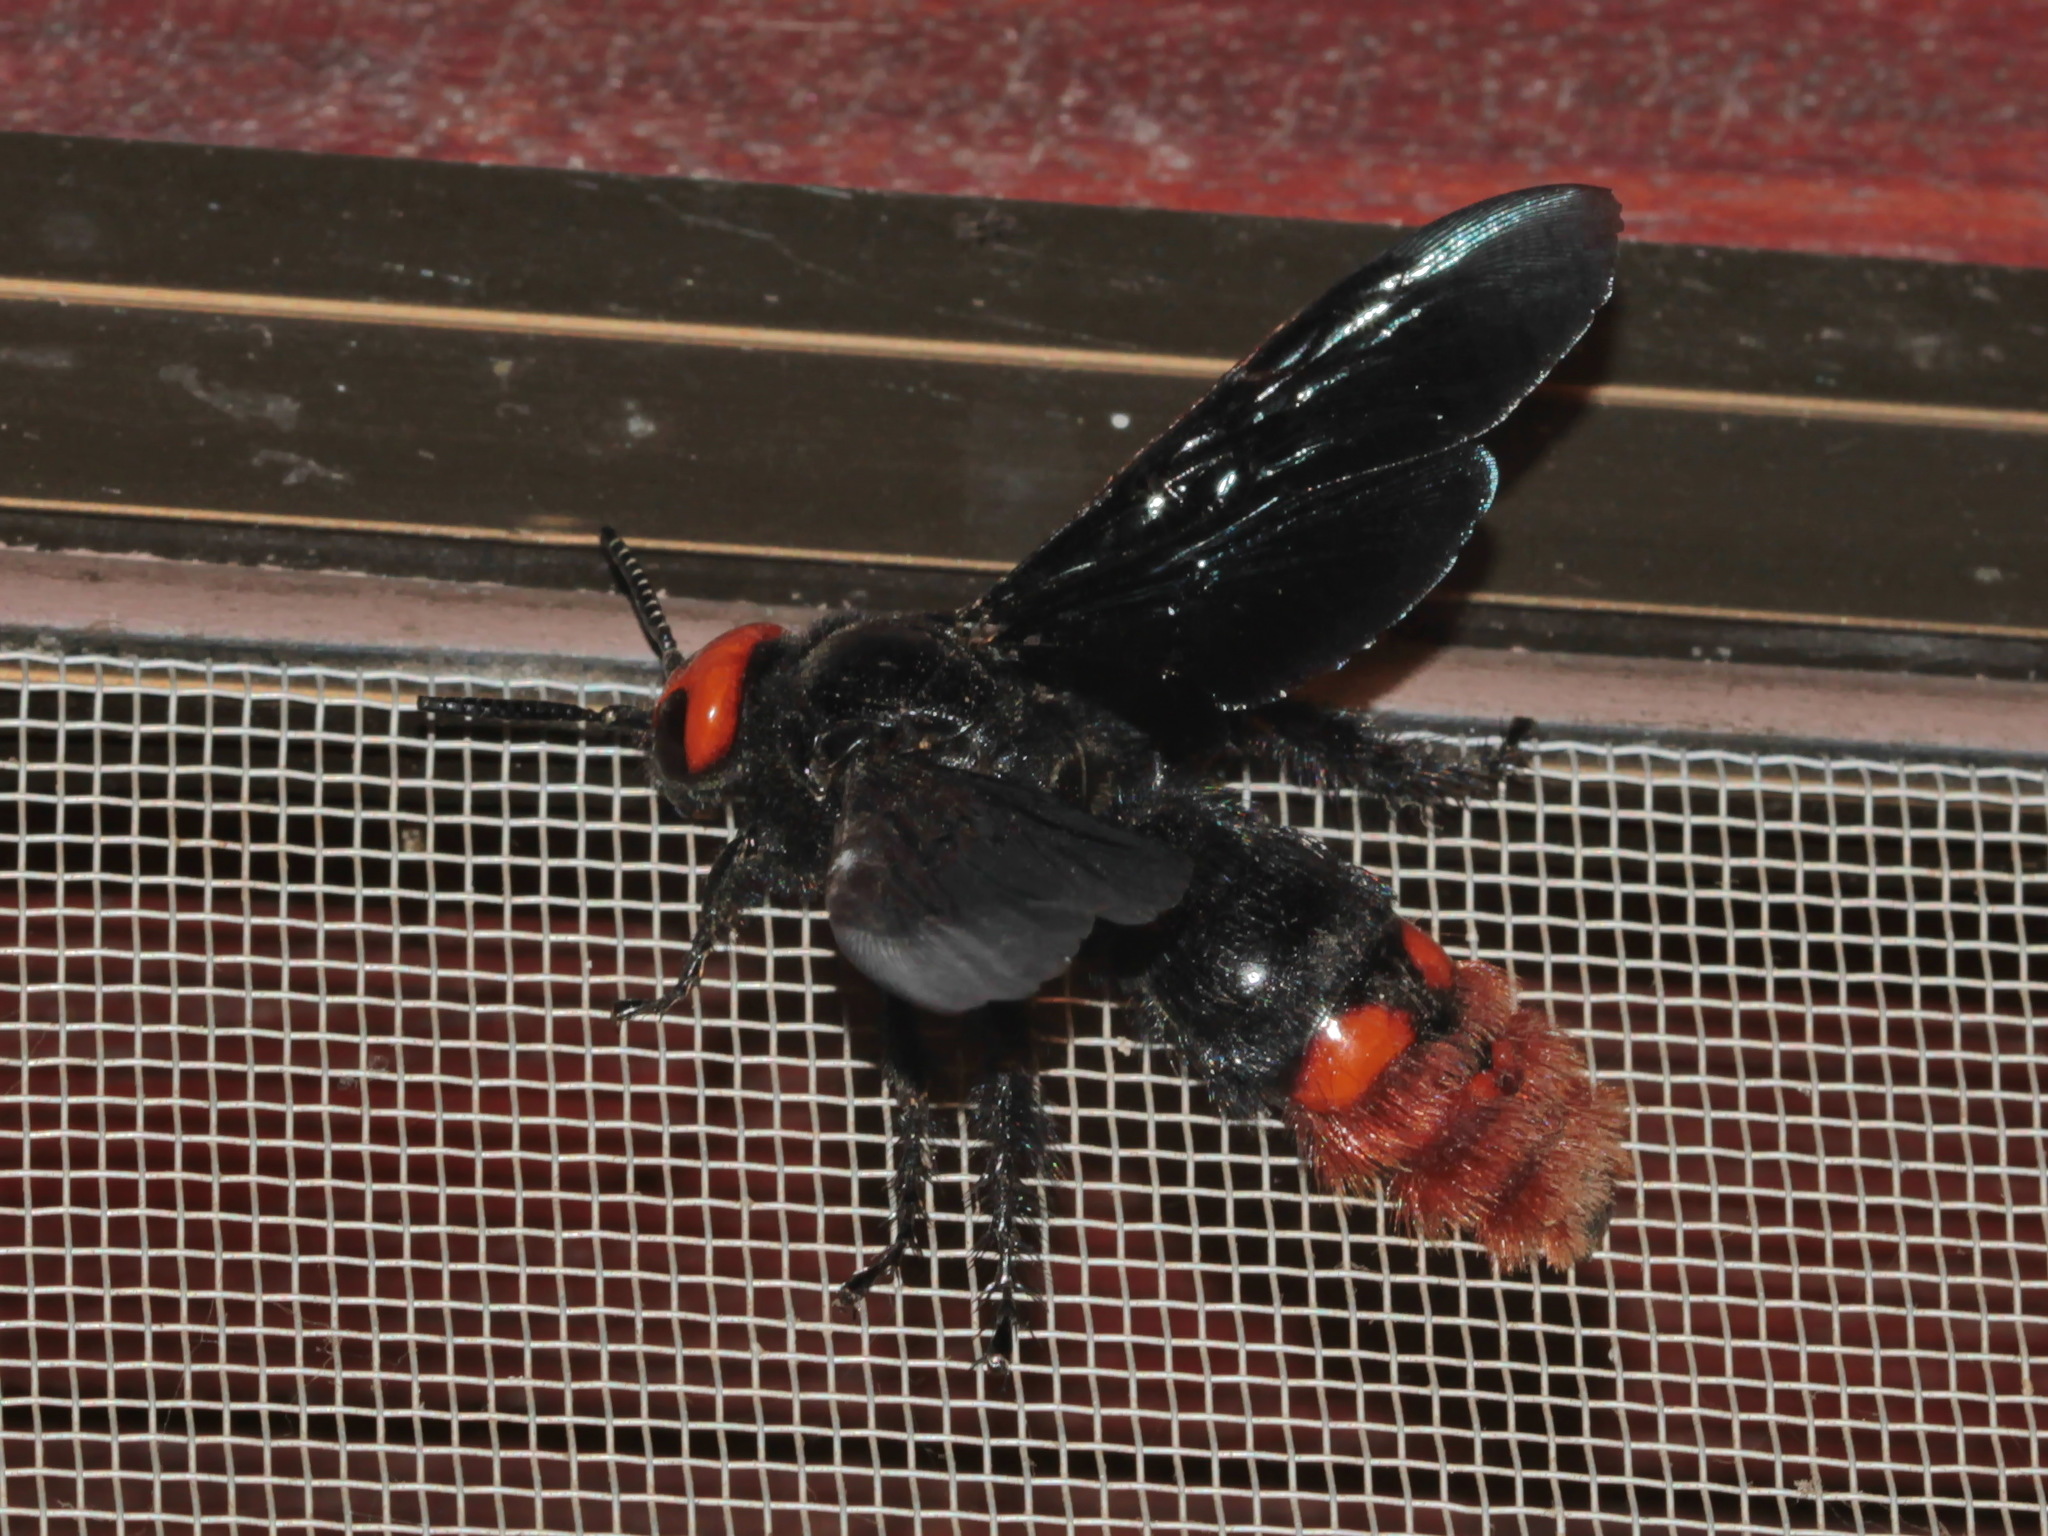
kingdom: Animalia
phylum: Arthropoda
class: Insecta
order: Hymenoptera
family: Scoliidae
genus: Megascolia
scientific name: Megascolia azurea
